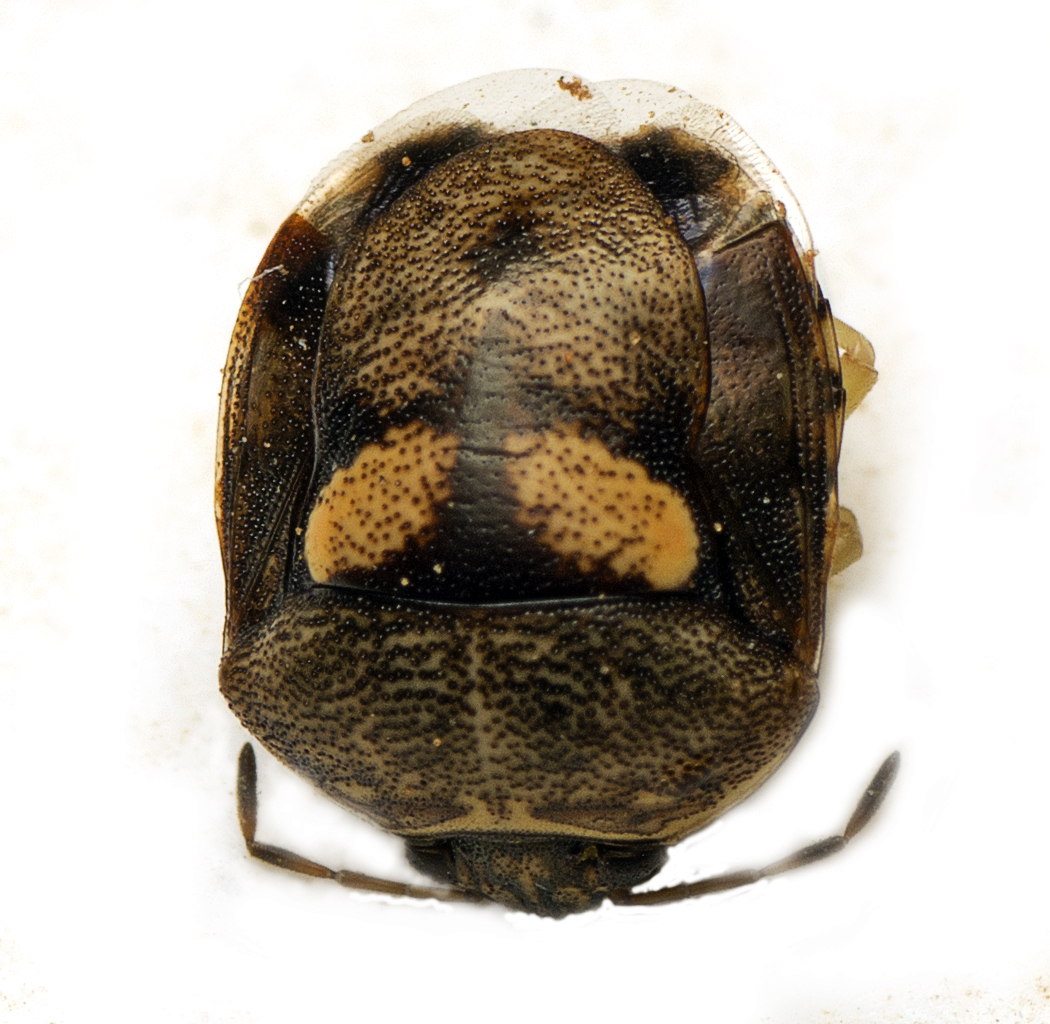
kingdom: Animalia
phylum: Arthropoda
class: Insecta
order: Hemiptera
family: Pentatomidae
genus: Aspideurus
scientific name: Aspideurus
